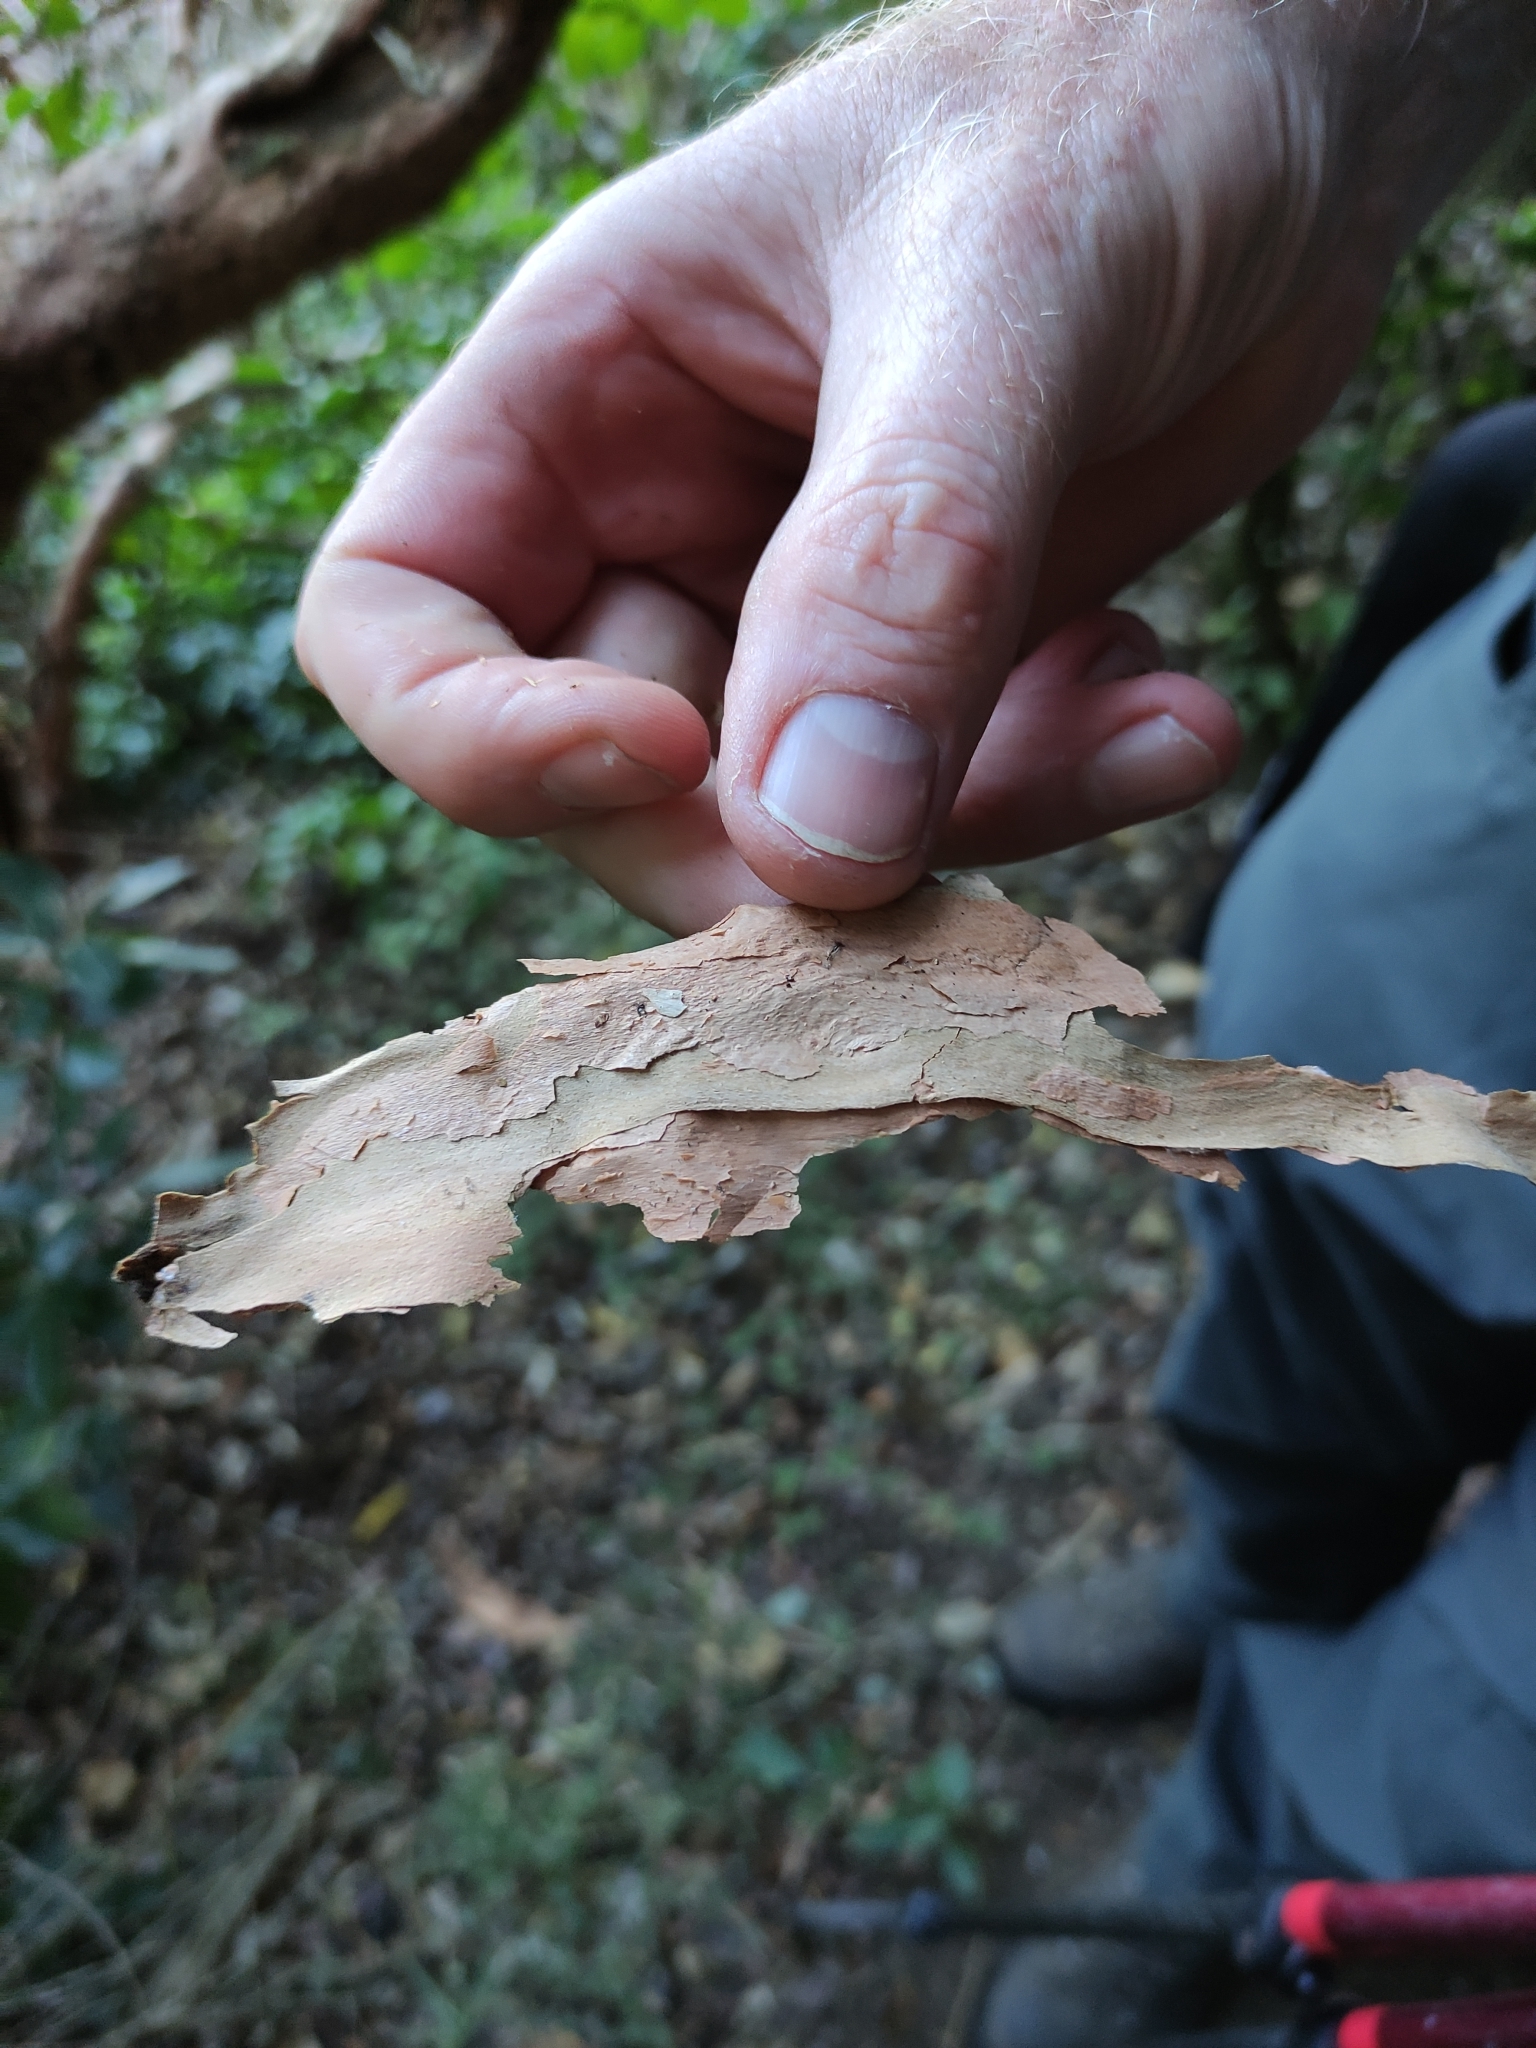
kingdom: Plantae
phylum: Tracheophyta
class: Magnoliopsida
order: Myrtales
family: Onagraceae
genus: Fuchsia
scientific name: Fuchsia excorticata
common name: Tree fuchsia
